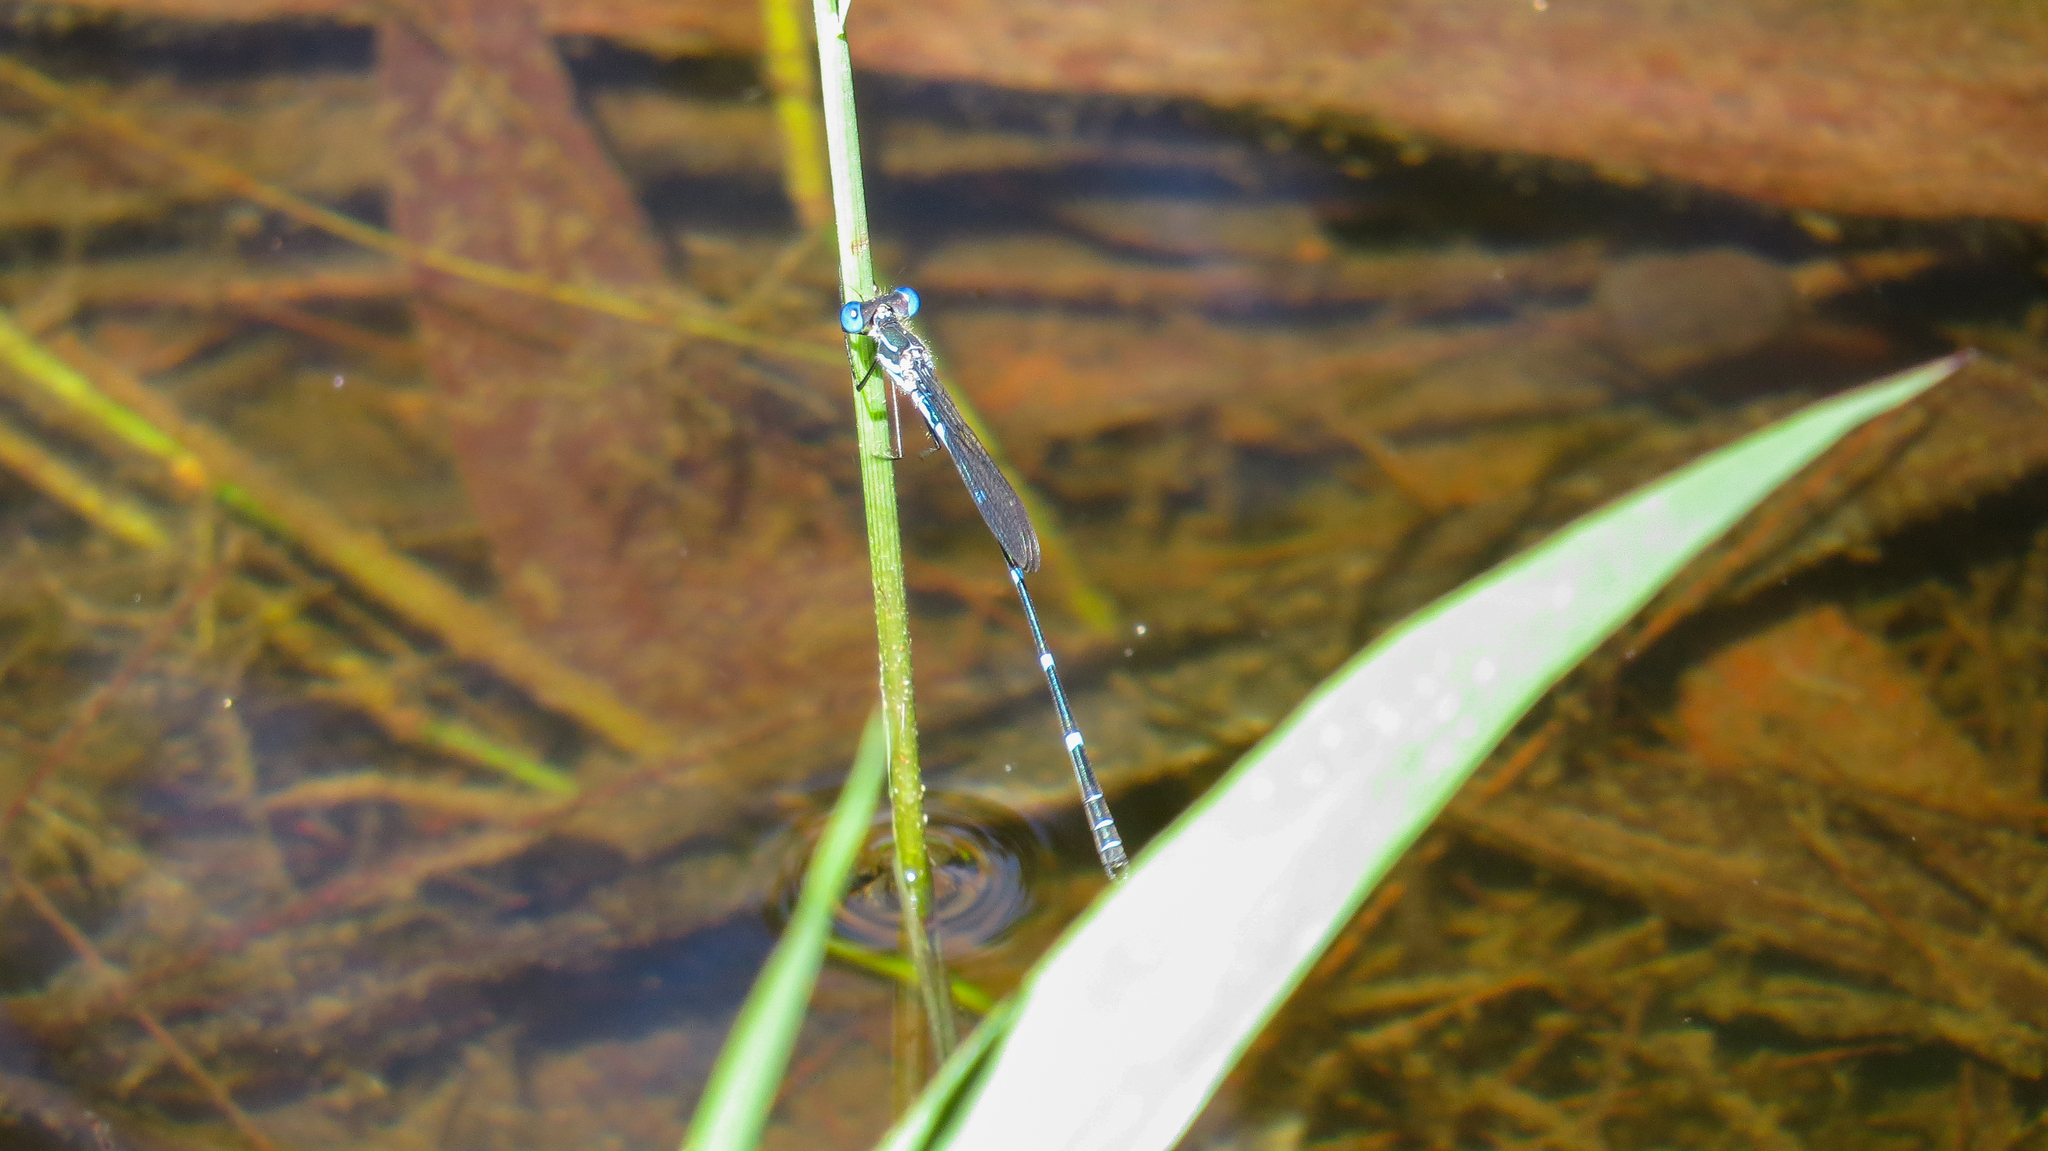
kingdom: Animalia
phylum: Arthropoda
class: Insecta
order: Odonata
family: Lestidae
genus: Austrolestes
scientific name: Austrolestes minjerriba
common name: Dune ringtail
